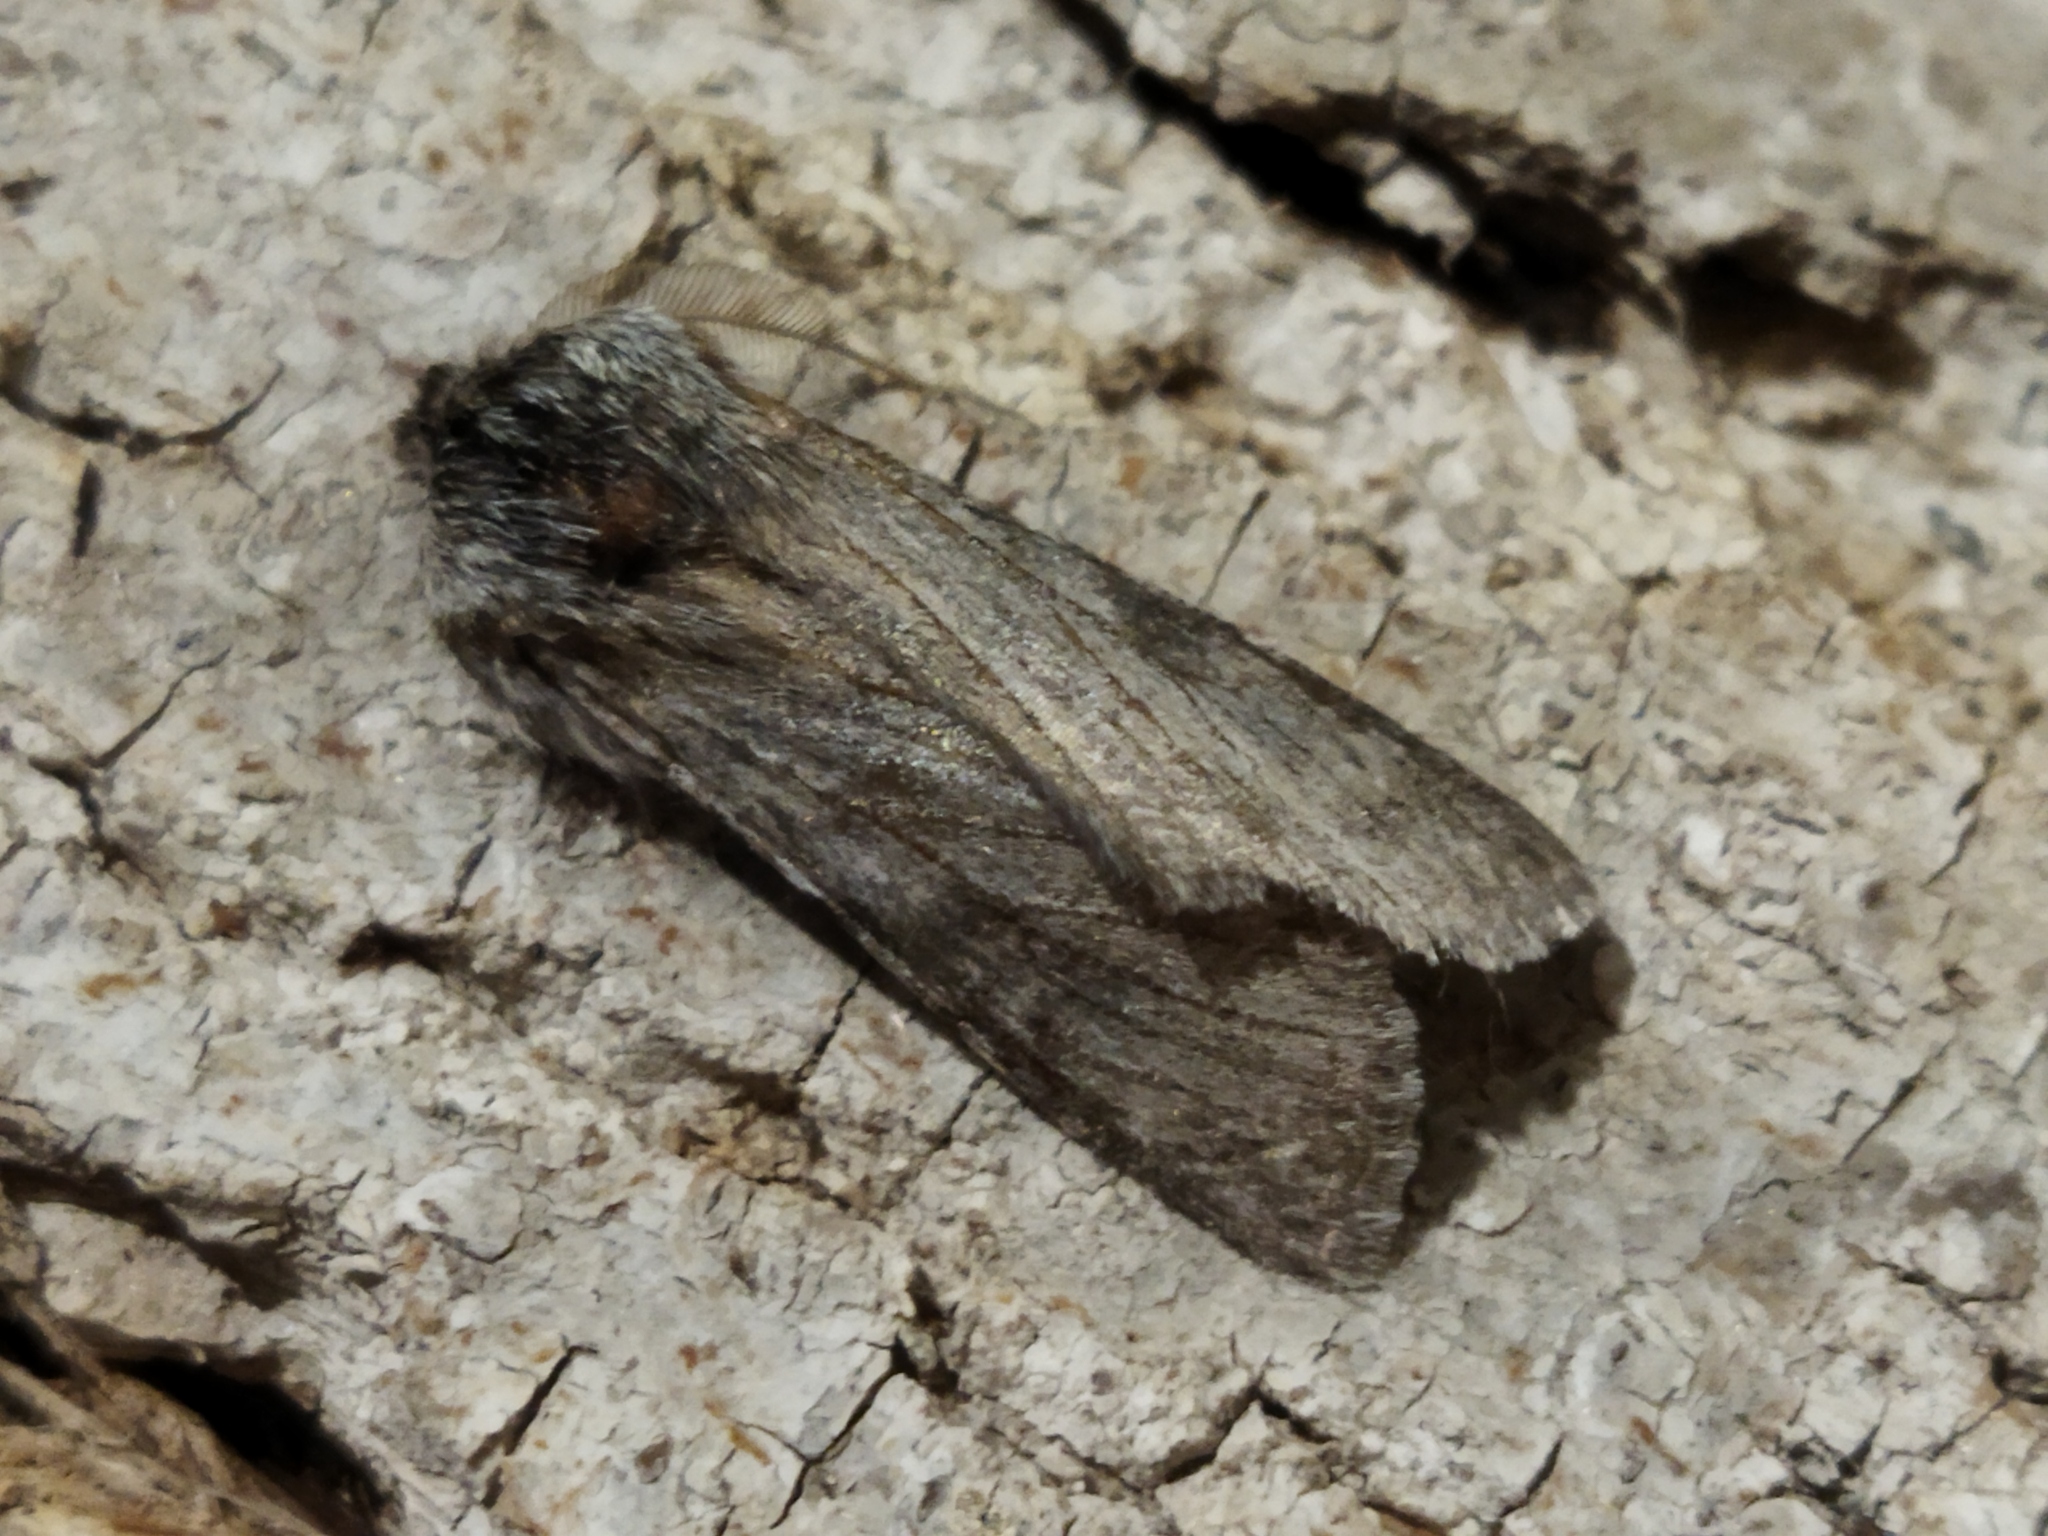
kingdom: Animalia
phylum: Arthropoda
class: Insecta
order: Lepidoptera
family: Notodontidae
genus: Dicranura
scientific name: Dicranura ulmi
